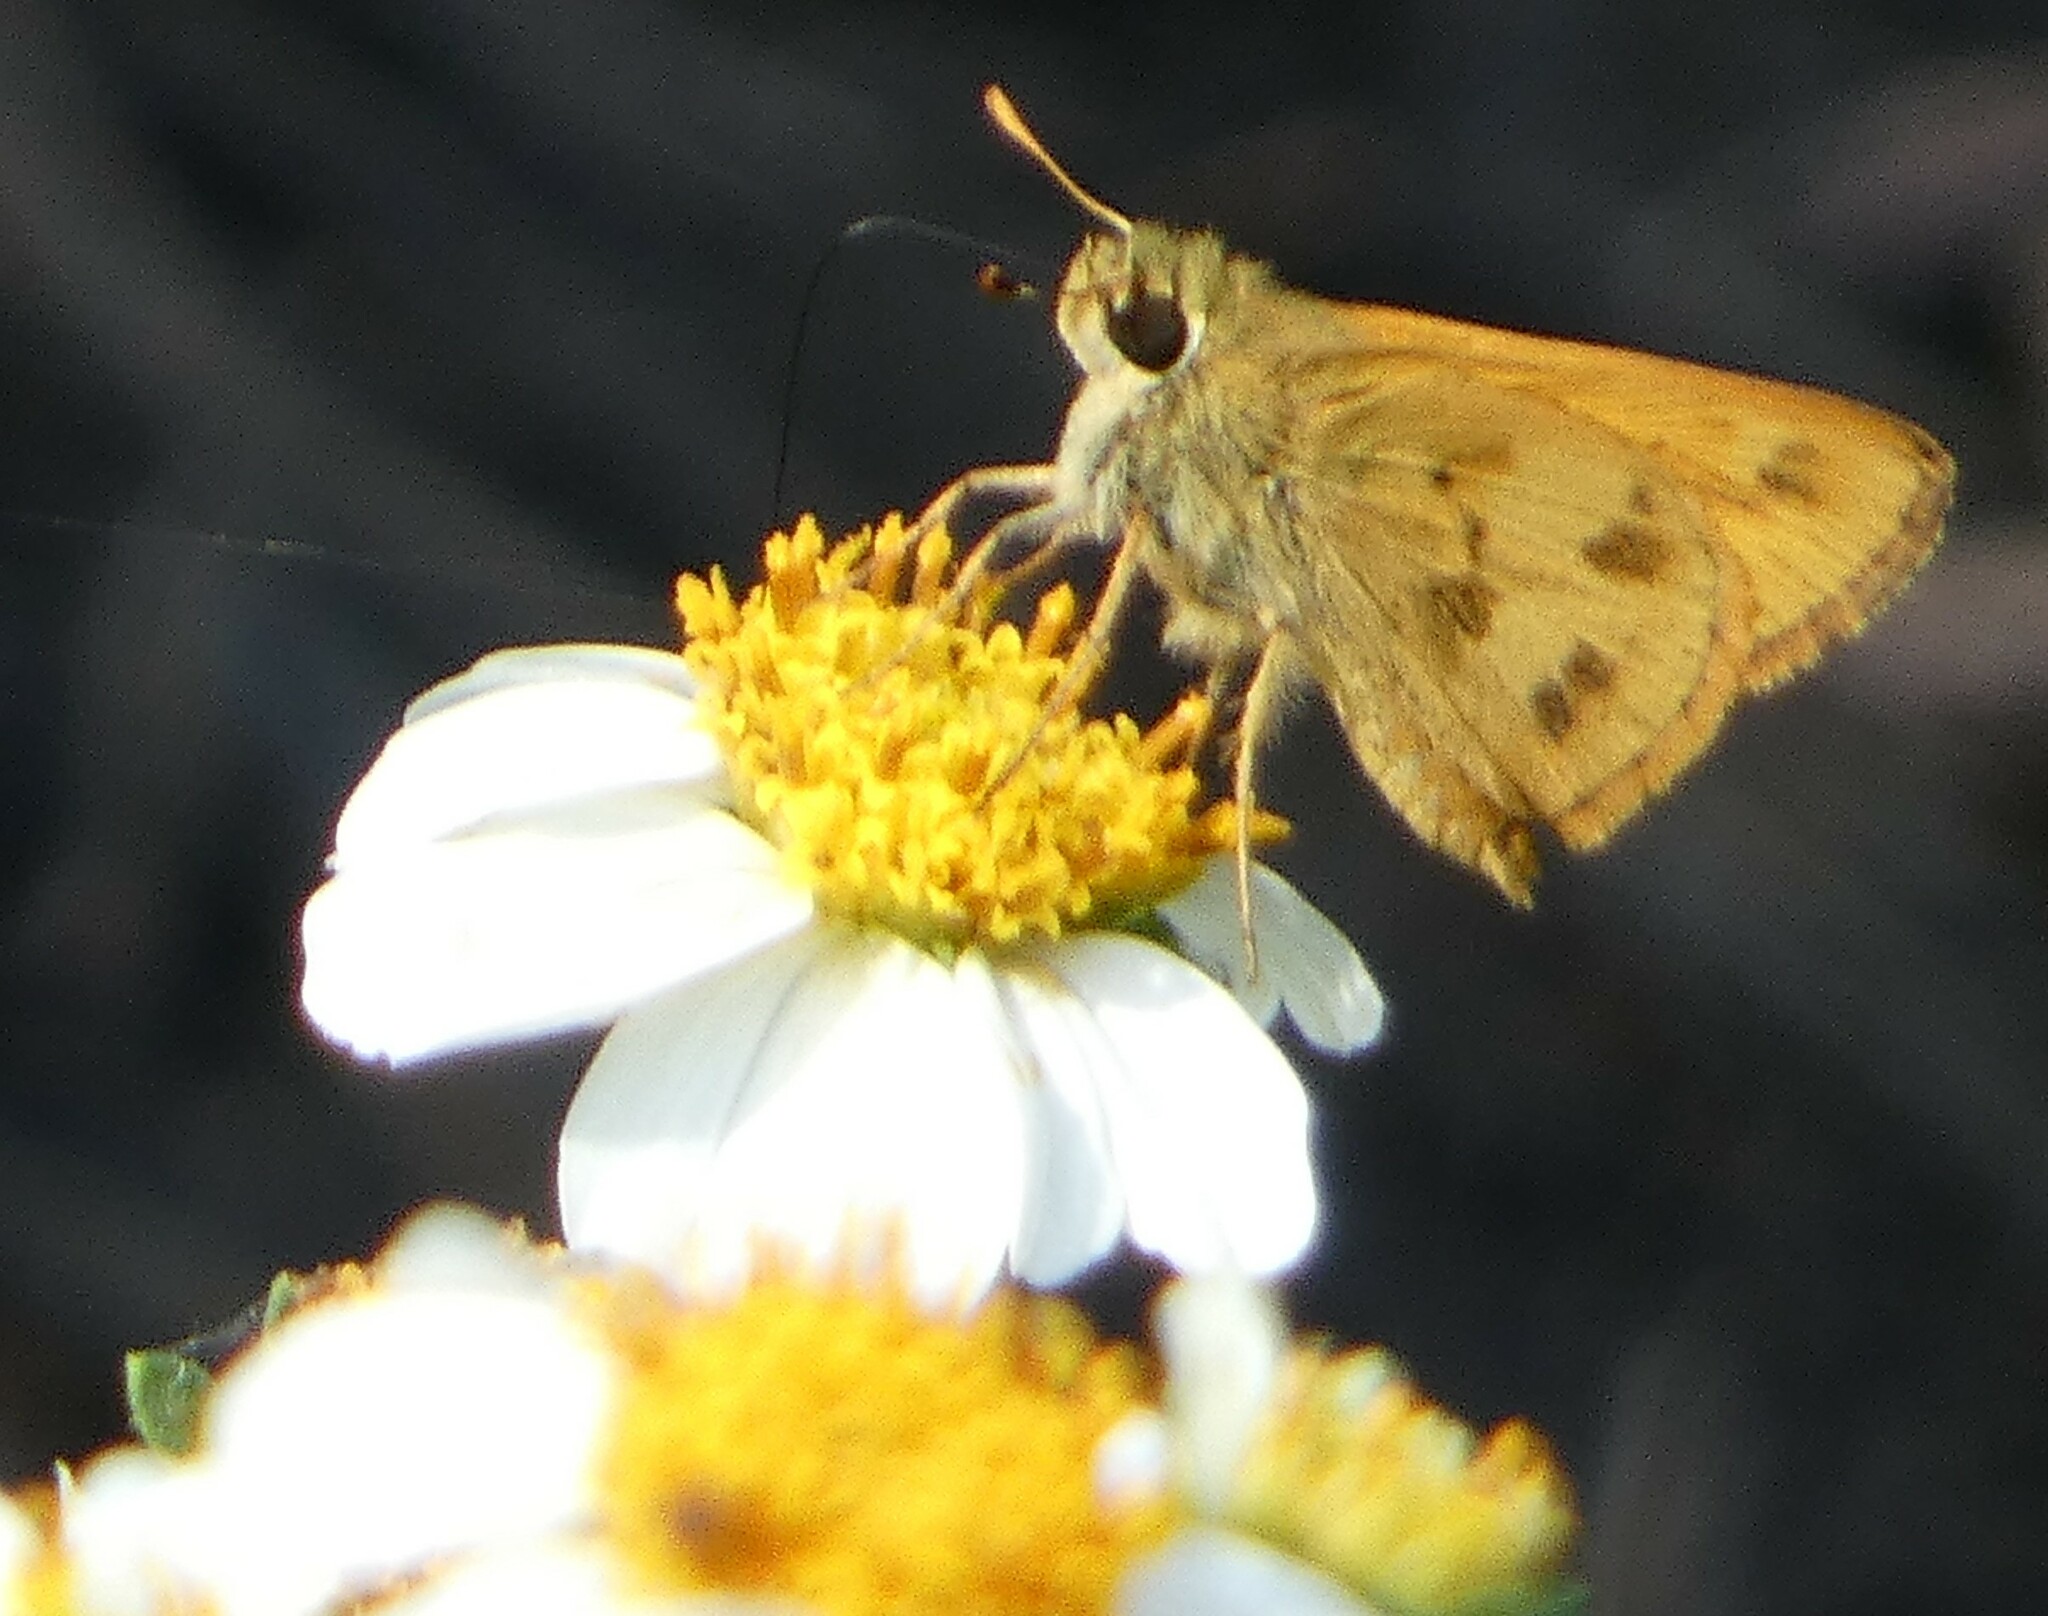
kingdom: Animalia
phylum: Arthropoda
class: Insecta
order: Lepidoptera
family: Hesperiidae
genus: Polites
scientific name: Polites vibex
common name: Whirlabout
